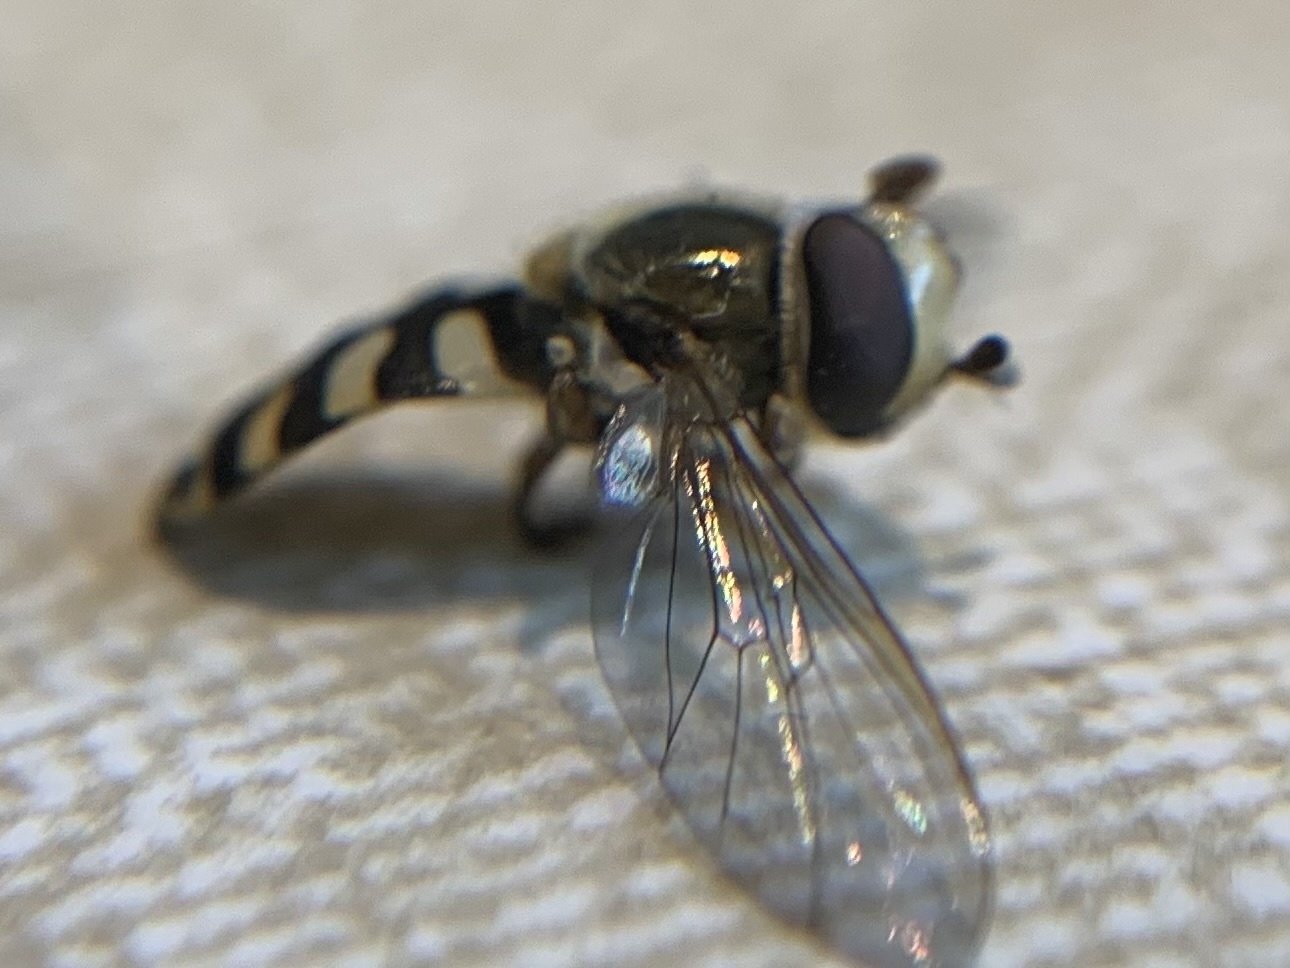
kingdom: Animalia
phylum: Arthropoda
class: Insecta
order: Diptera
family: Syrphidae
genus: Eupeodes
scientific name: Eupeodes corollae
